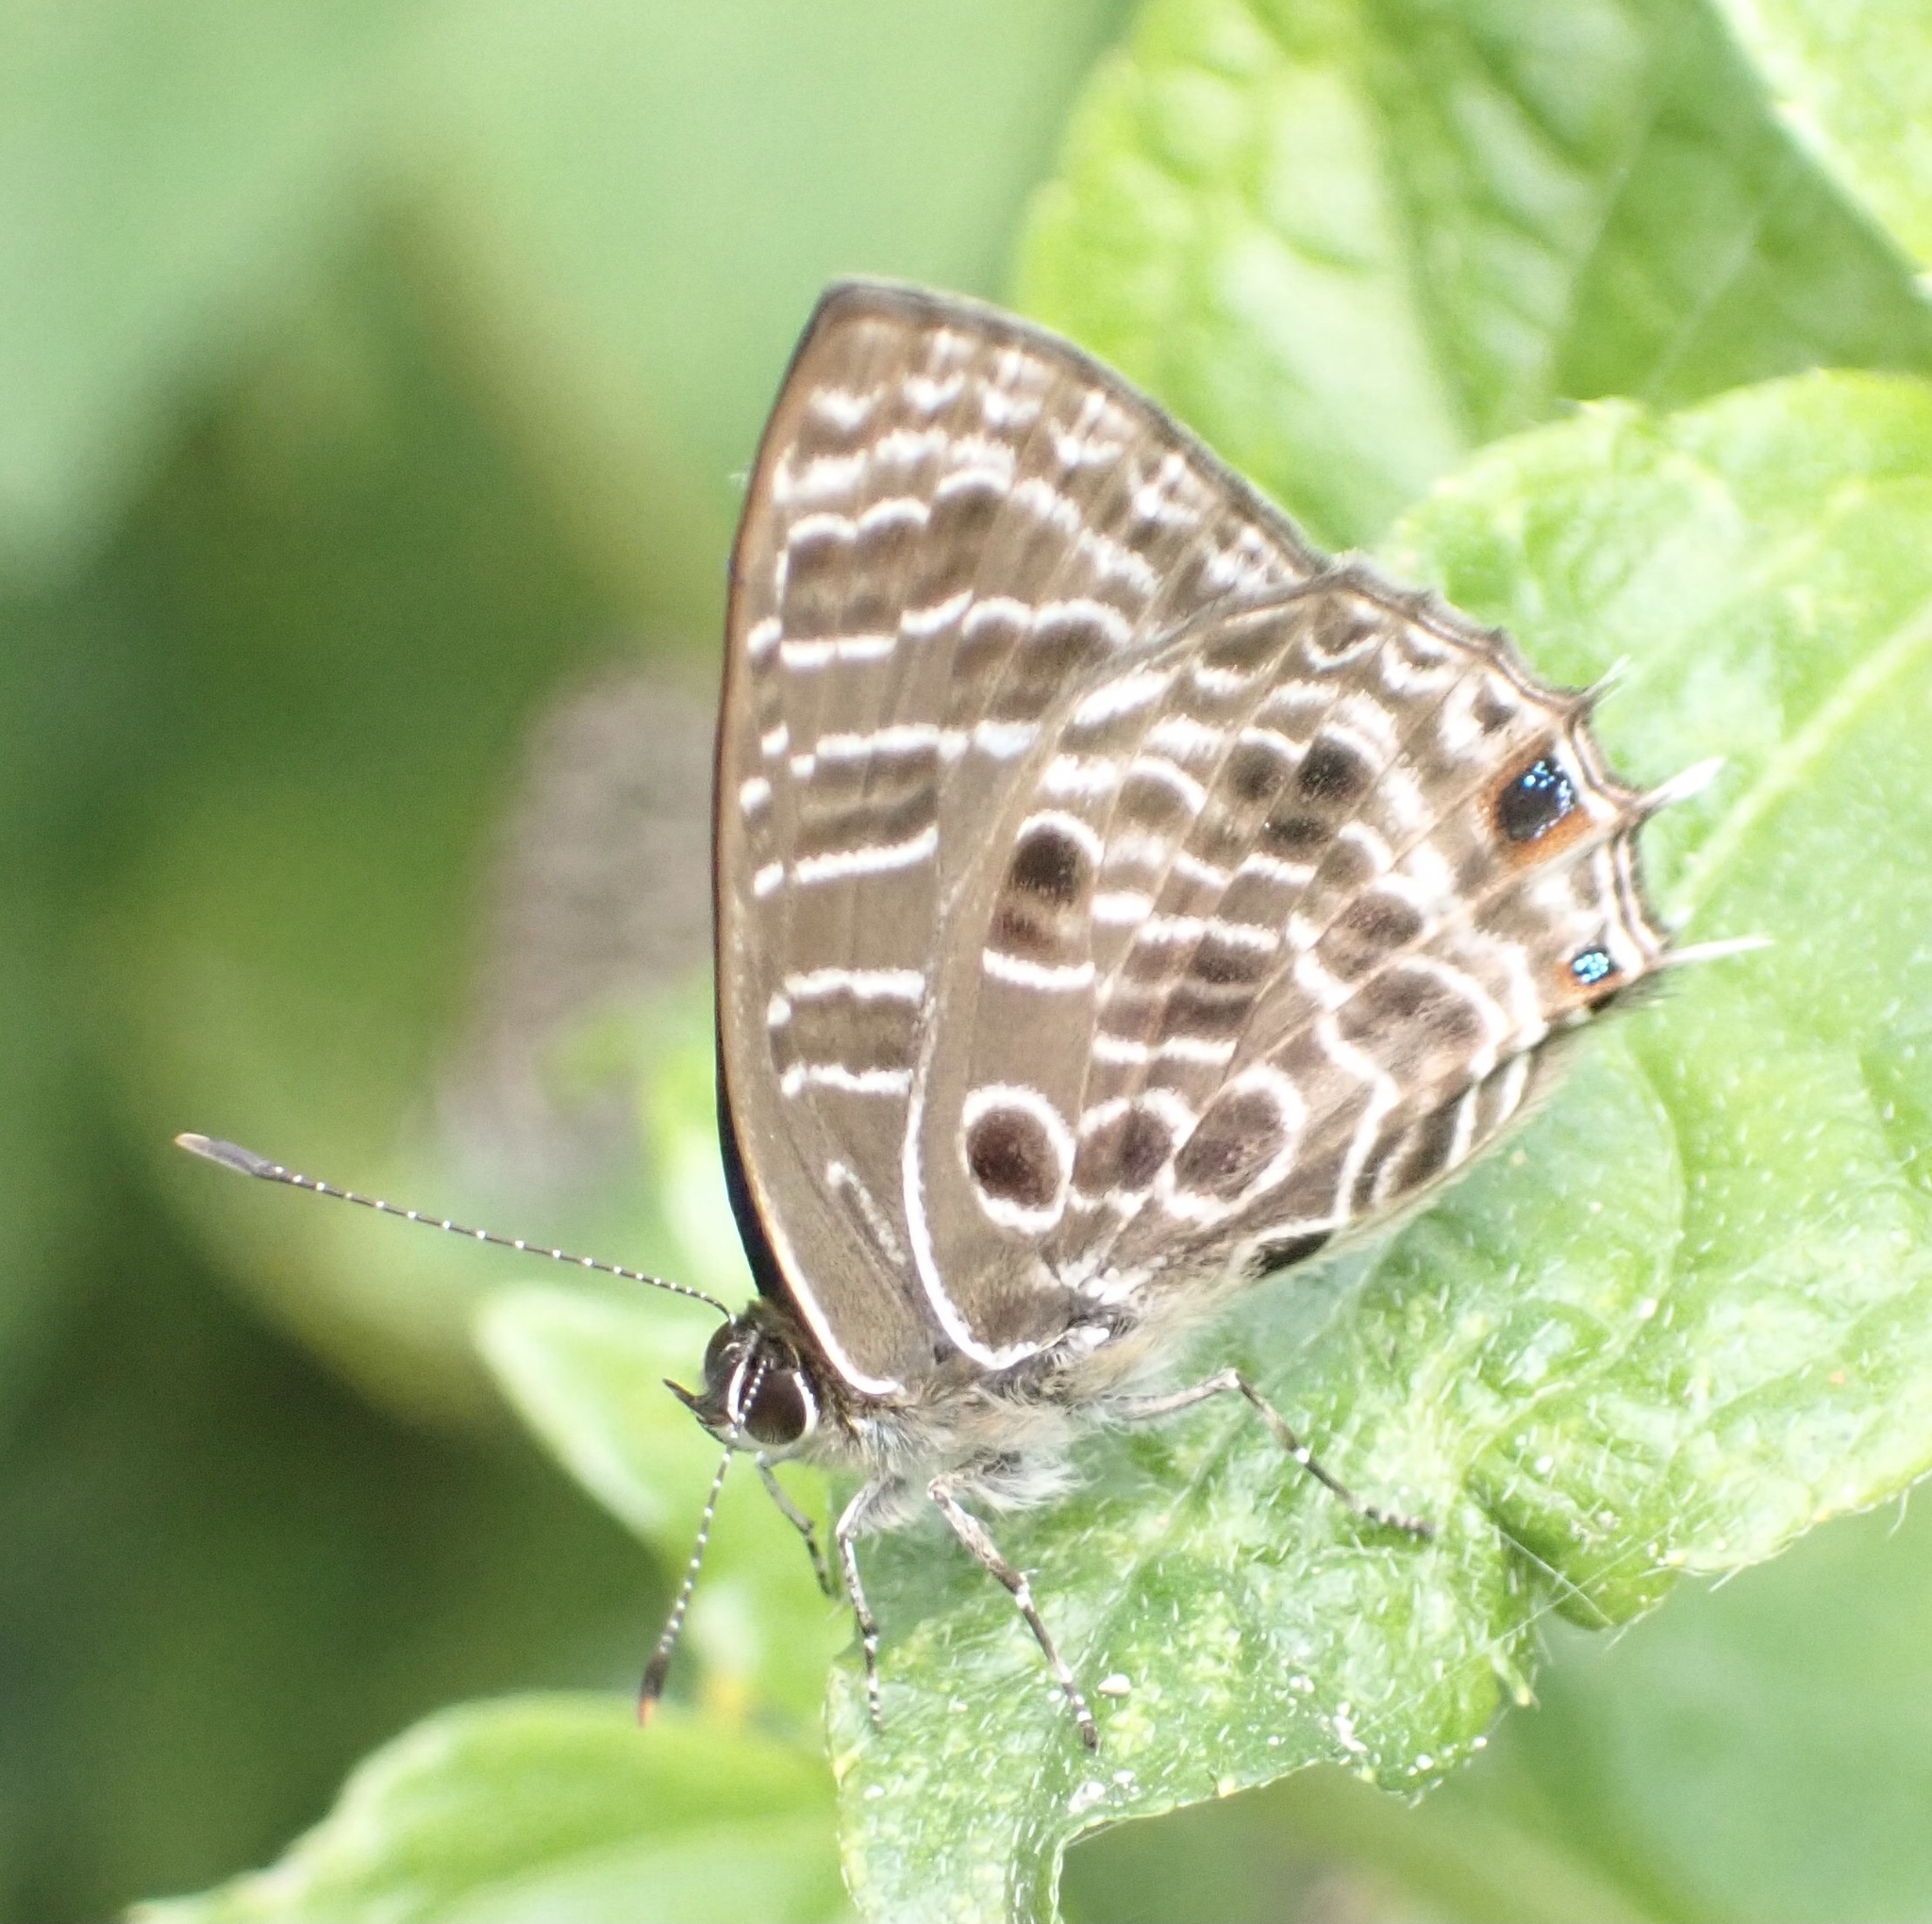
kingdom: Animalia
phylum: Arthropoda
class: Insecta
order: Lepidoptera
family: Lycaenidae
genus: Anthene
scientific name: Anthene larydas
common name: Forest hairtail
